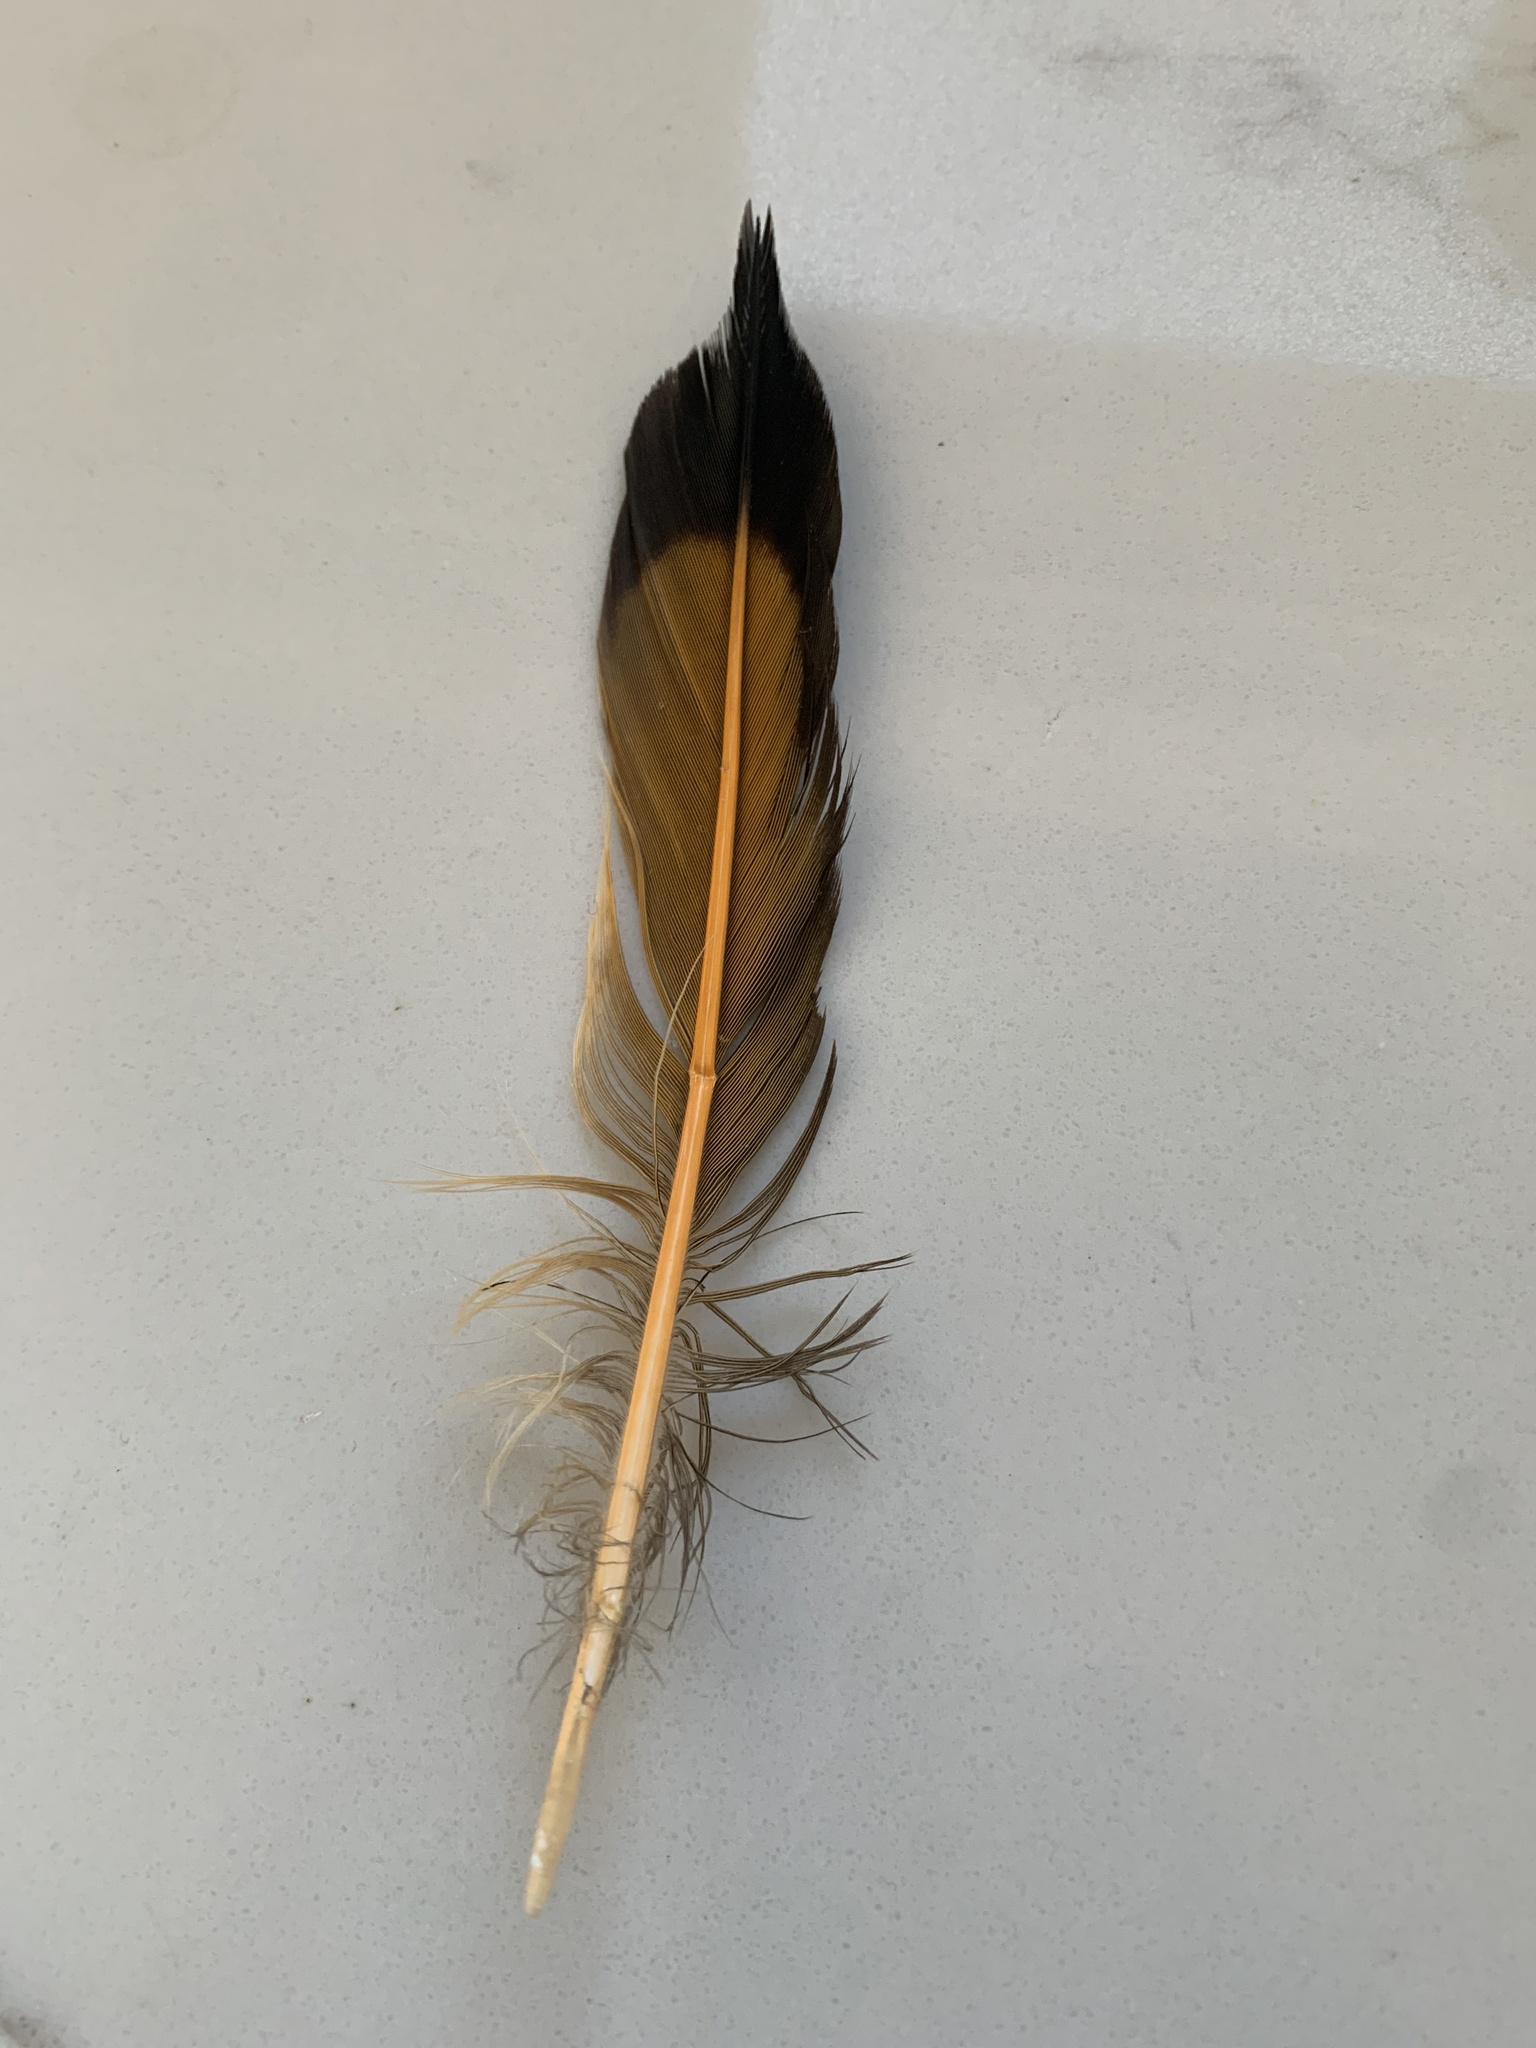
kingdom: Animalia
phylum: Chordata
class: Aves
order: Piciformes
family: Picidae
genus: Colaptes
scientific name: Colaptes auratus
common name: Northern flicker
